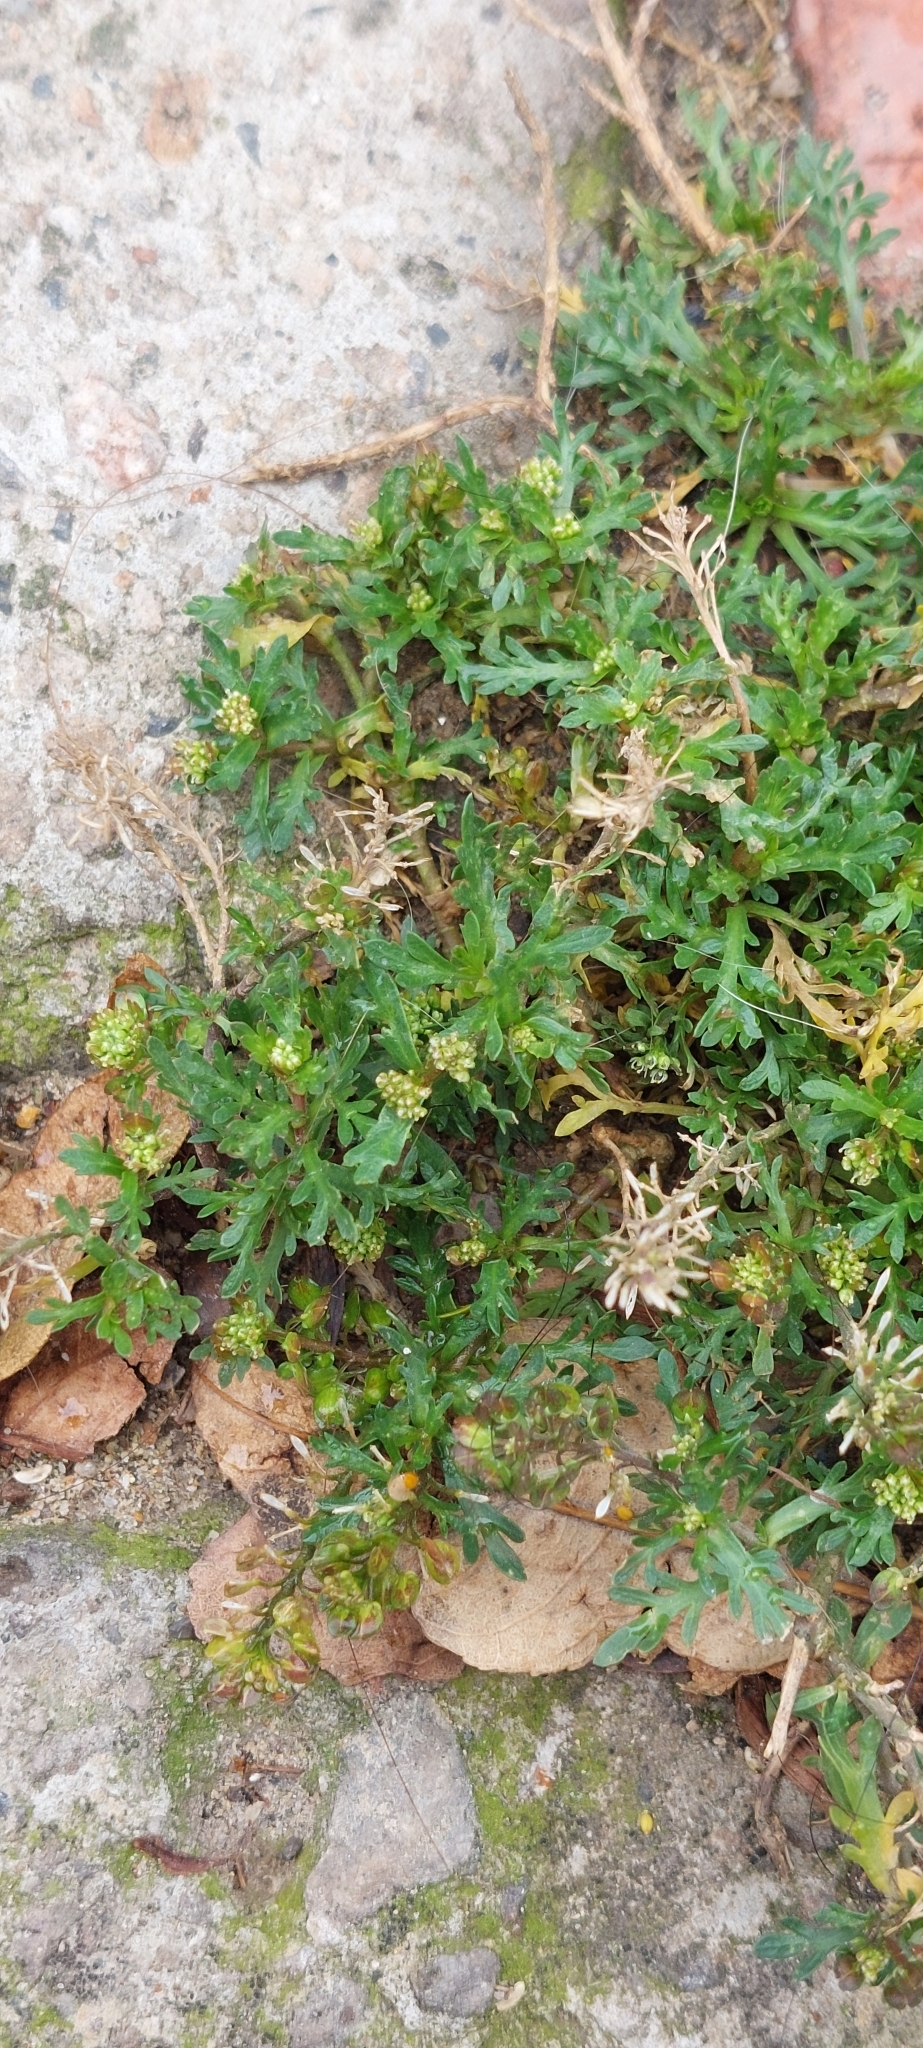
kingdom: Plantae
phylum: Tracheophyta
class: Magnoliopsida
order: Brassicales
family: Brassicaceae
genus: Lepidium
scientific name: Lepidium bipinnatifidum
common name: Wayside pepperwort
